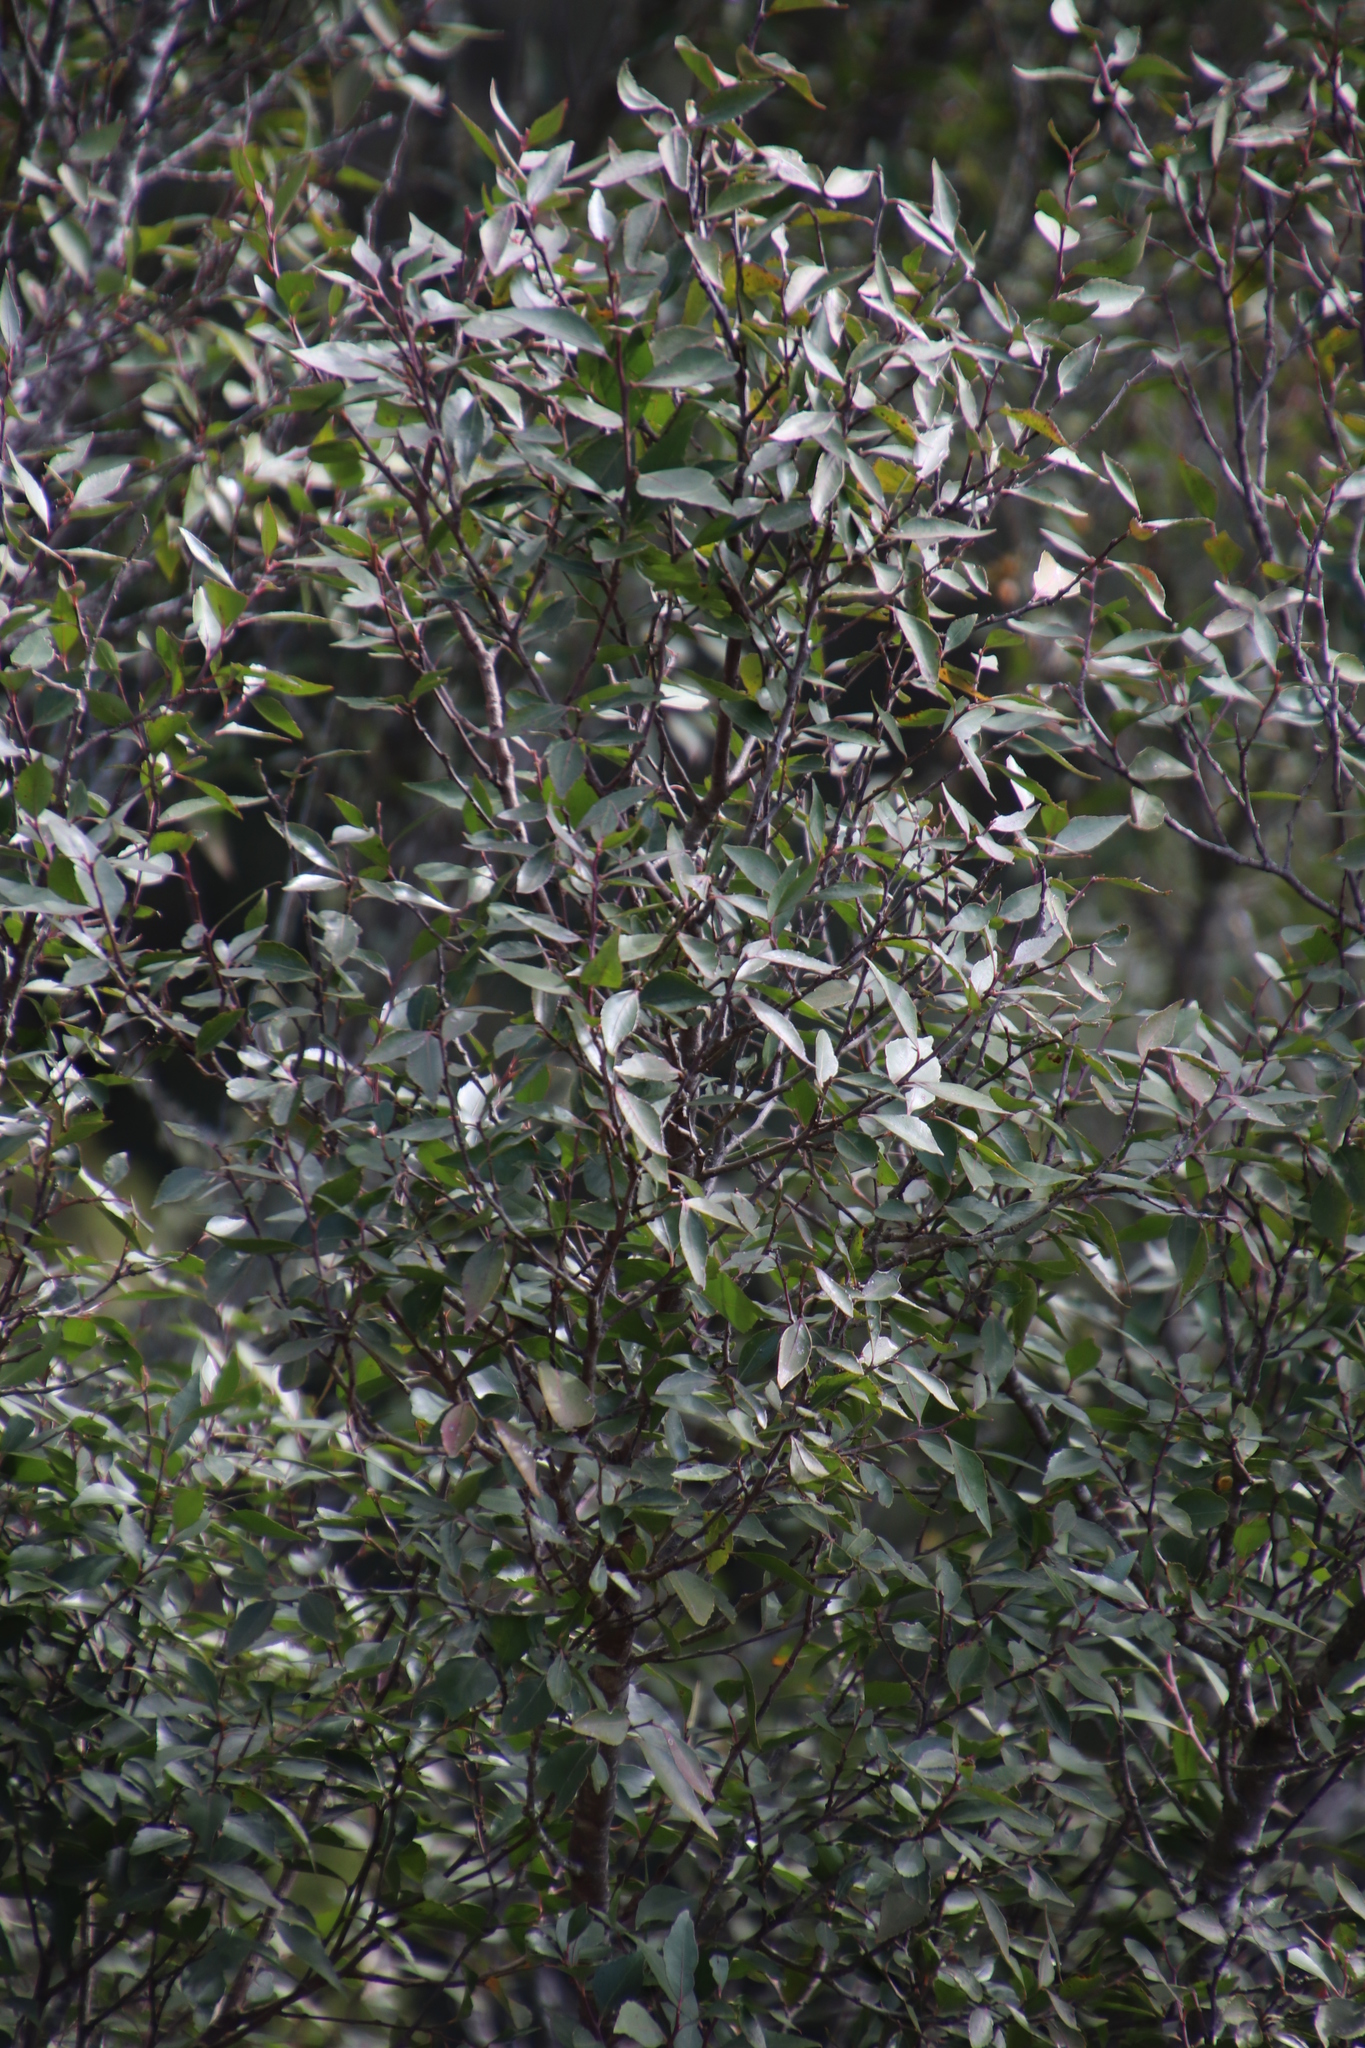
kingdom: Plantae
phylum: Tracheophyta
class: Magnoliopsida
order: Ericales
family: Primulaceae
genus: Myrsine
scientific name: Myrsine melanophloeos
